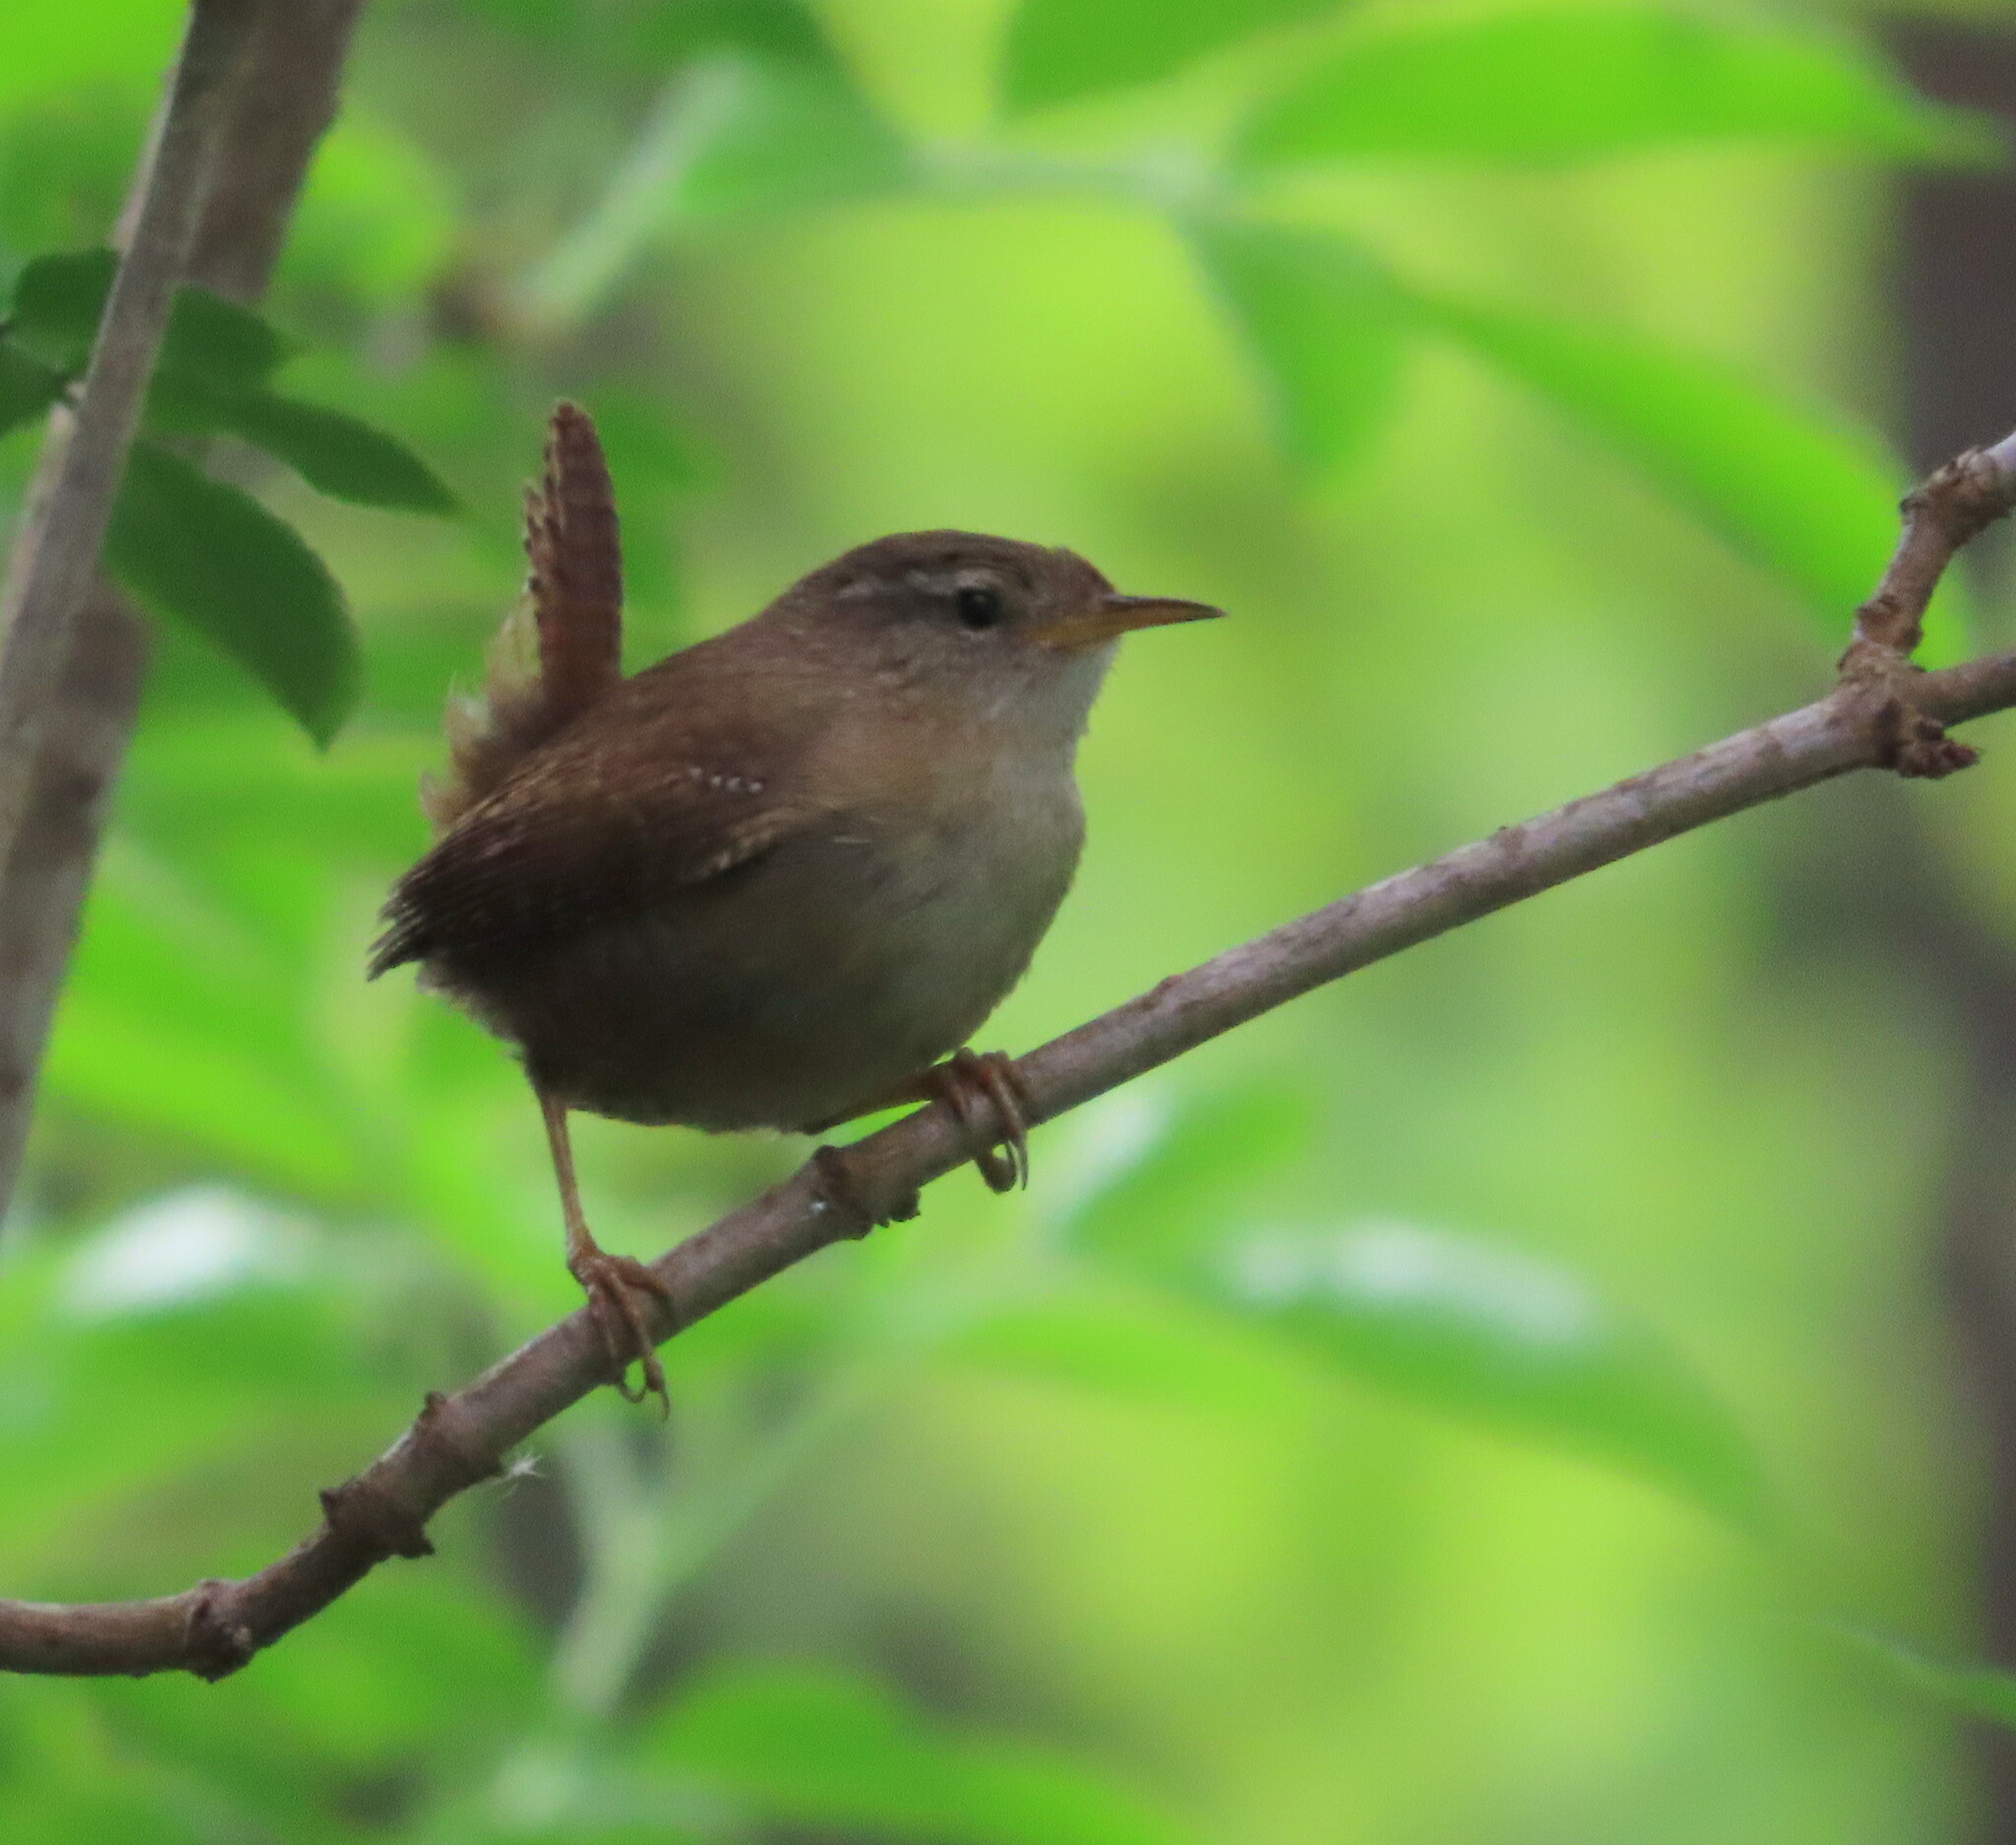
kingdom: Animalia
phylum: Chordata
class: Aves
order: Passeriformes
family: Troglodytidae
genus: Troglodytes
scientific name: Troglodytes troglodytes
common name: Eurasian wren
